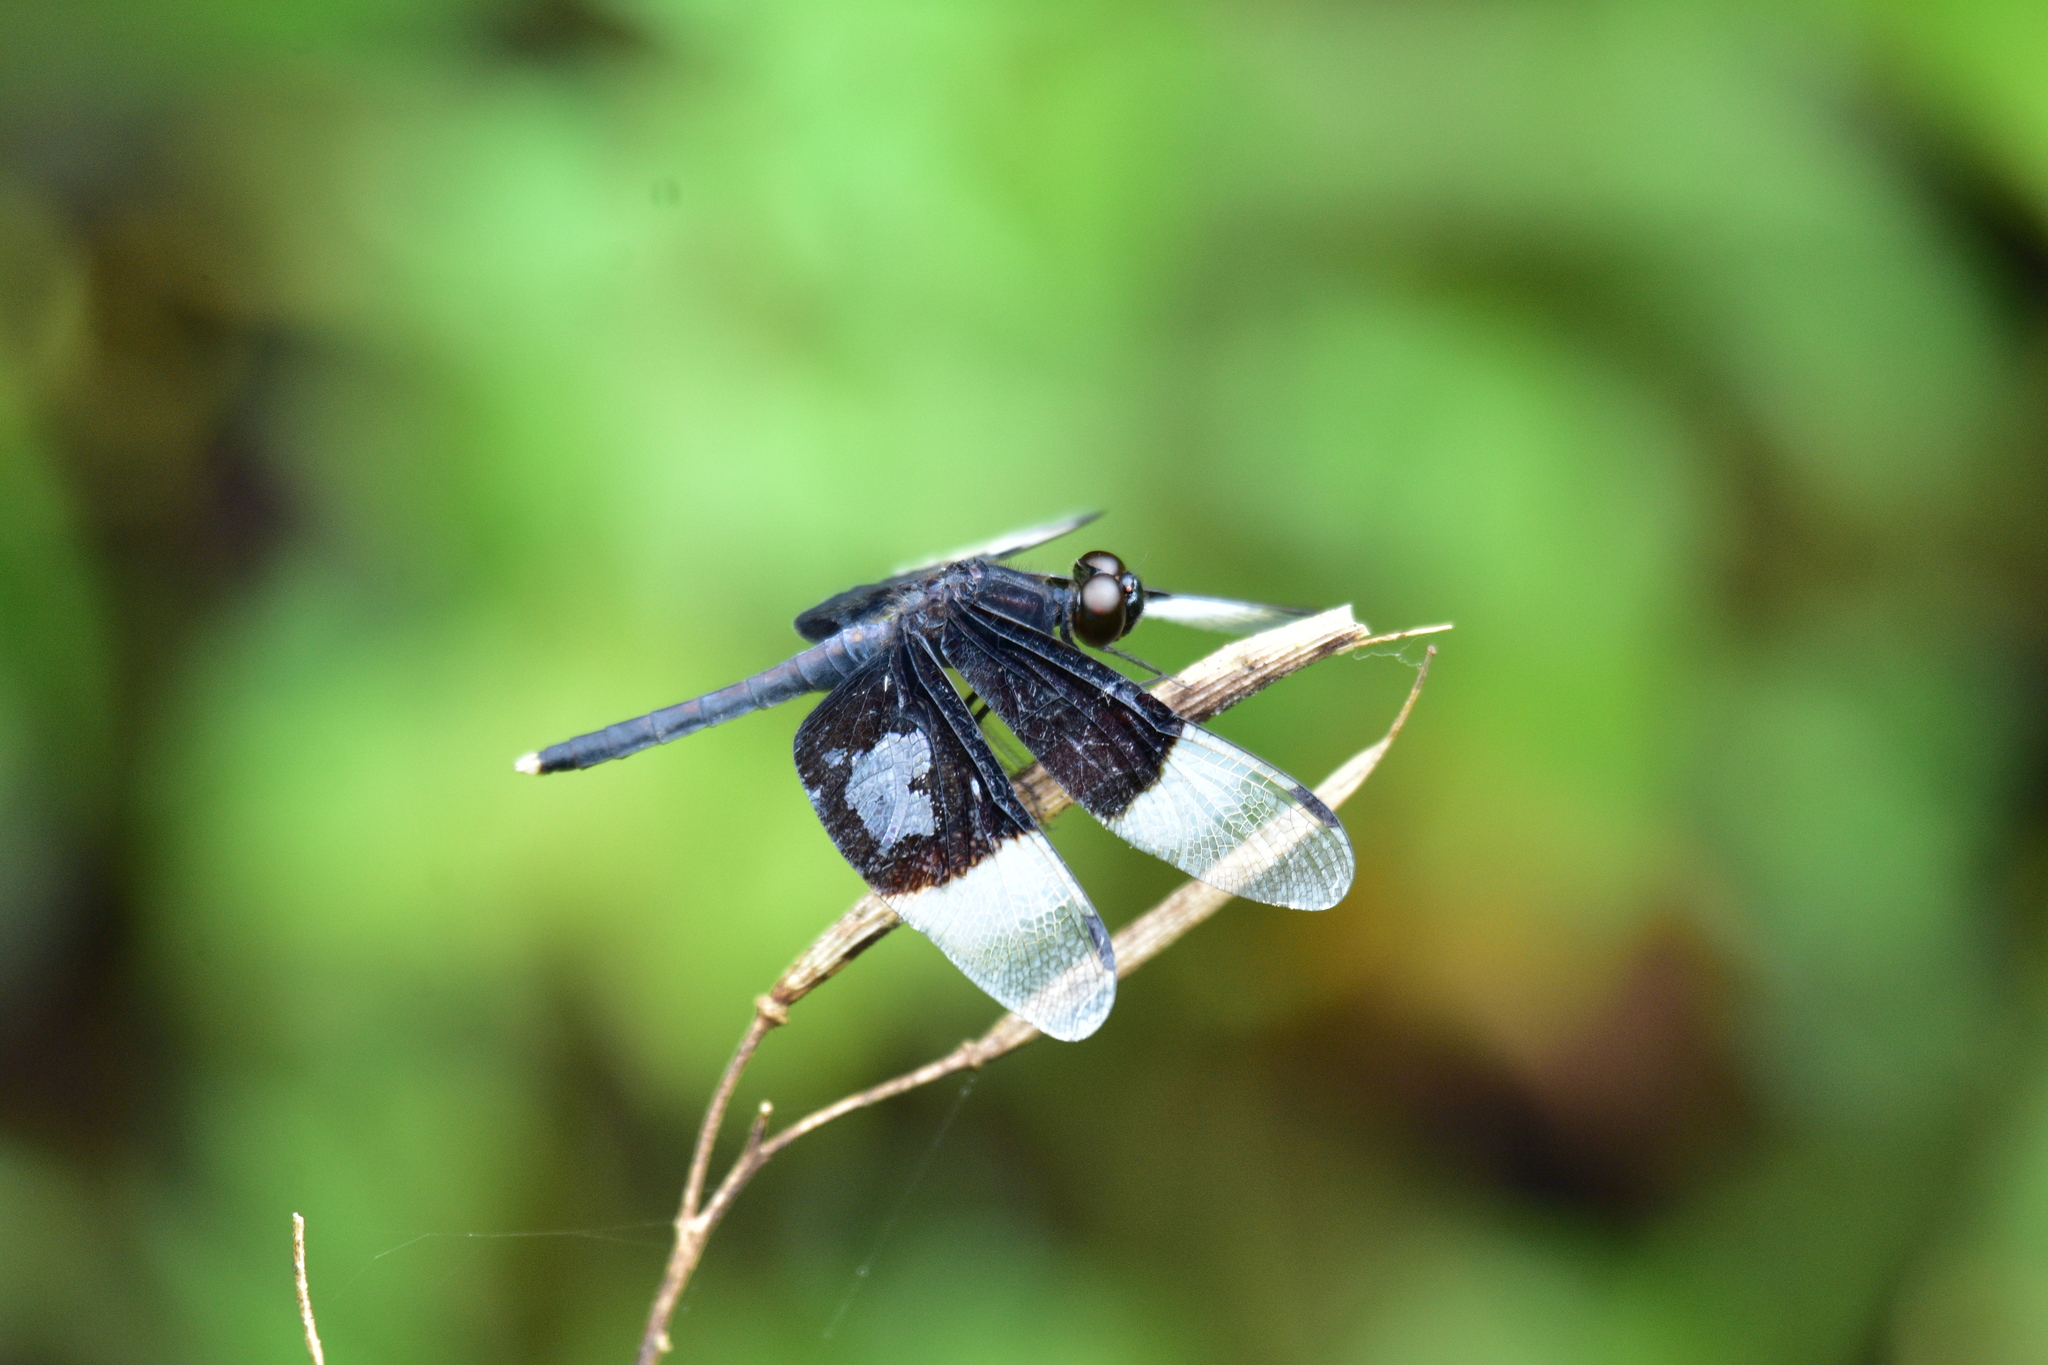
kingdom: Animalia
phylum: Arthropoda
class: Insecta
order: Odonata
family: Libellulidae
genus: Neurothemis
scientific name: Neurothemis tullia
